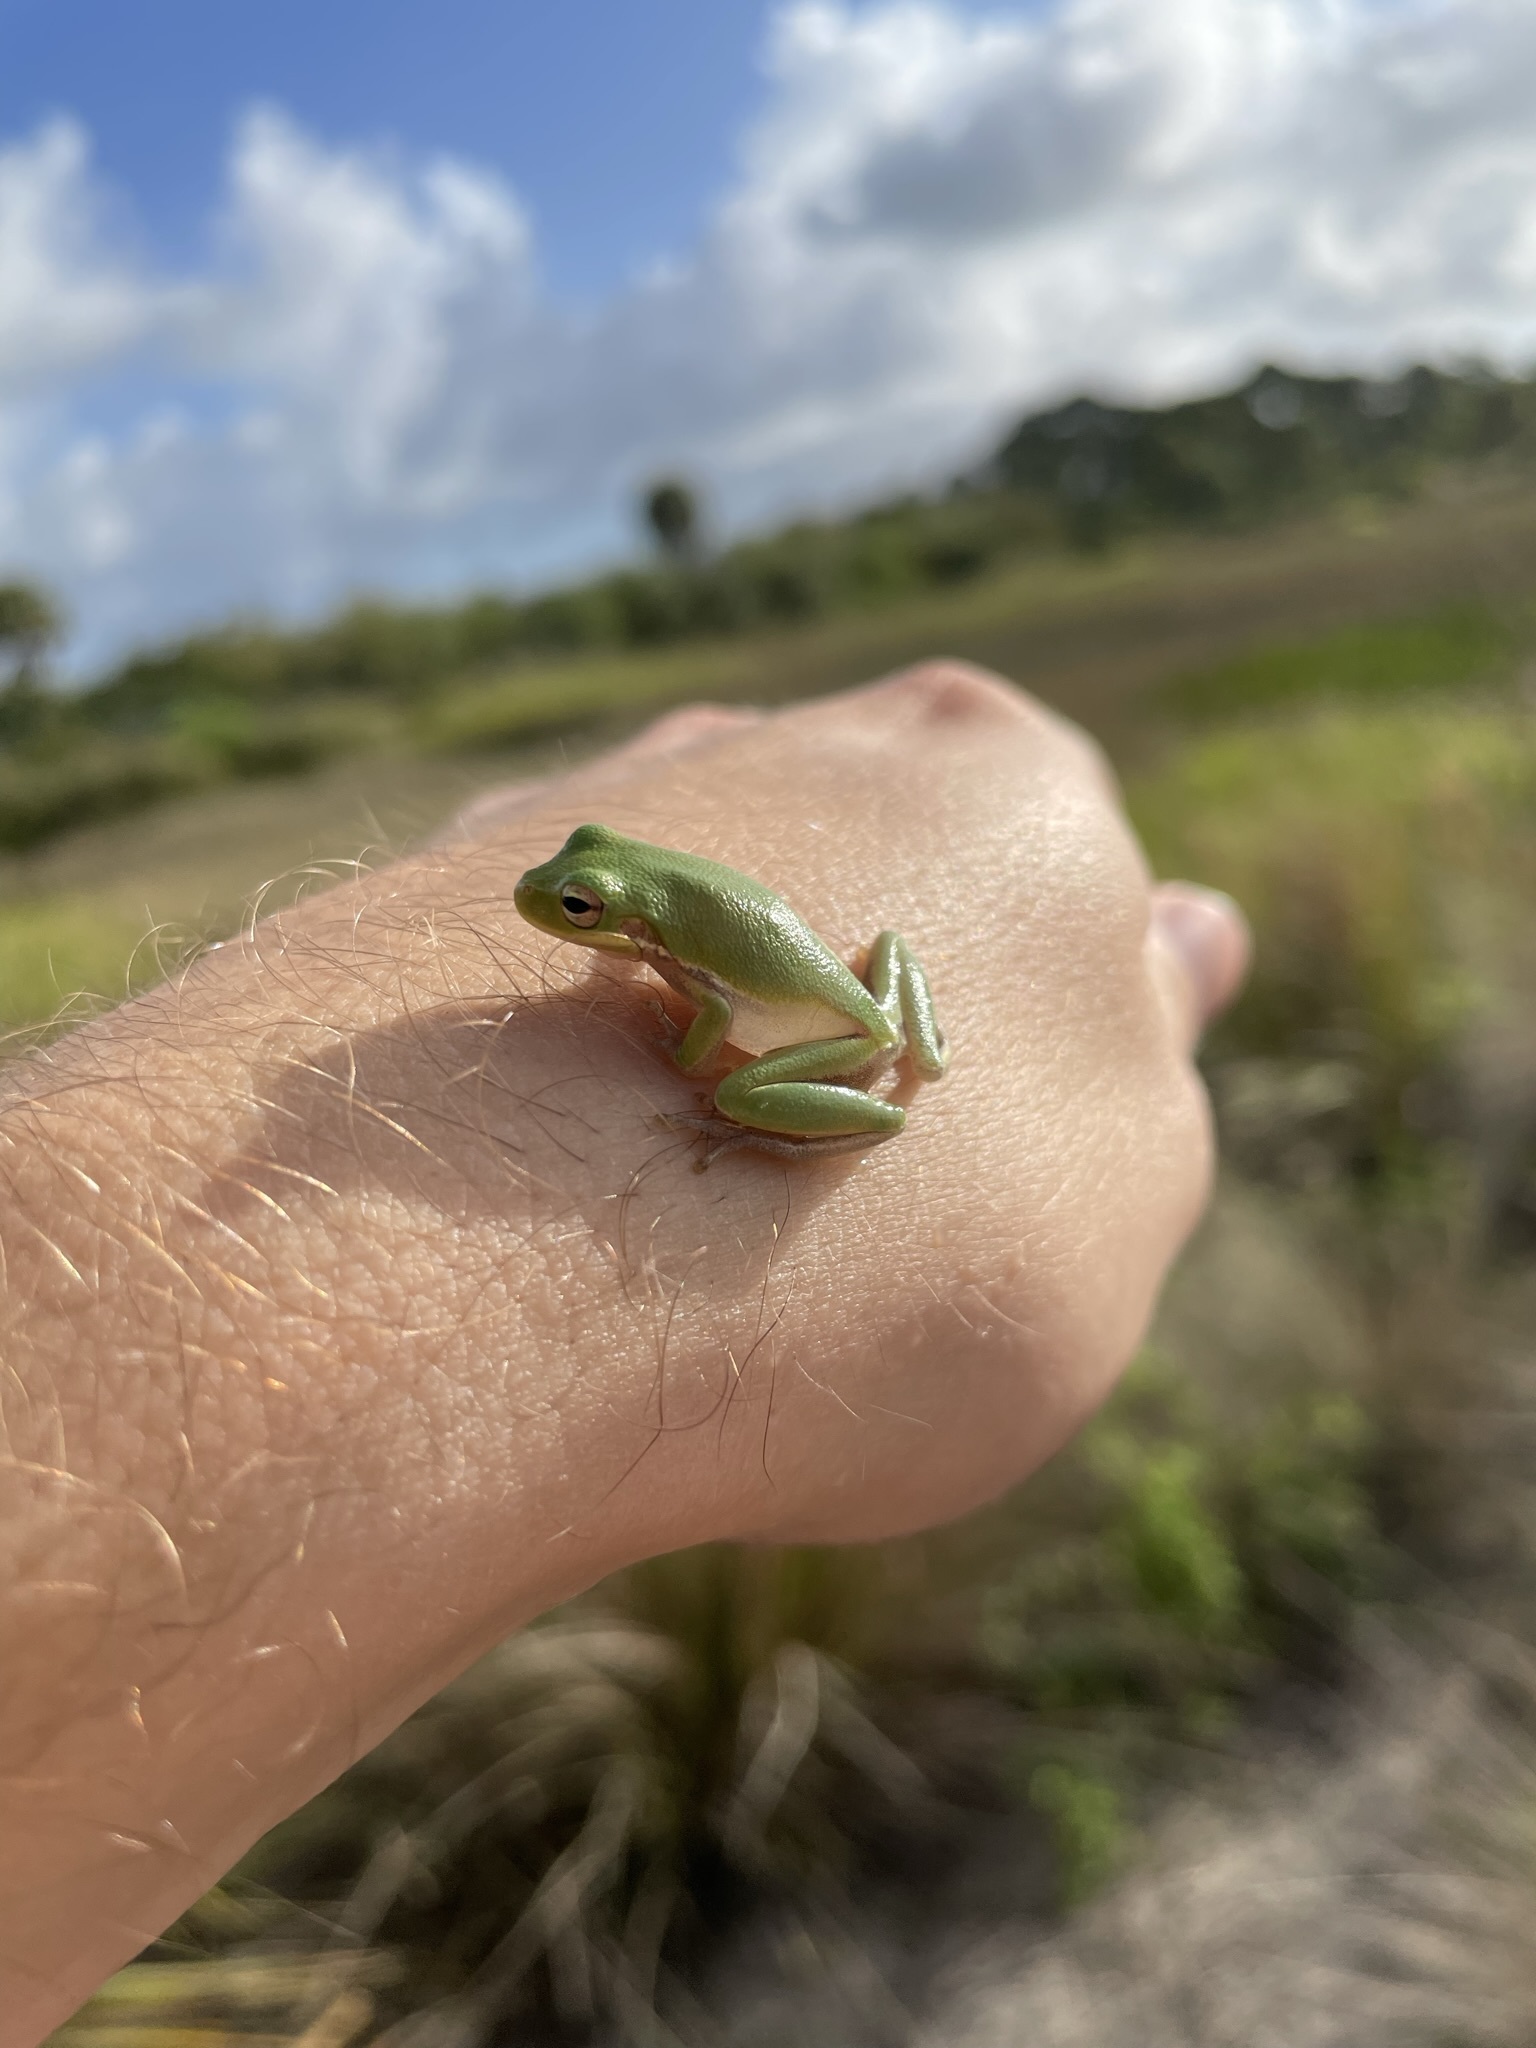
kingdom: Animalia
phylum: Chordata
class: Amphibia
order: Anura
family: Hylidae
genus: Dryophytes
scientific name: Dryophytes squirellus
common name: Squirrel treefrog
